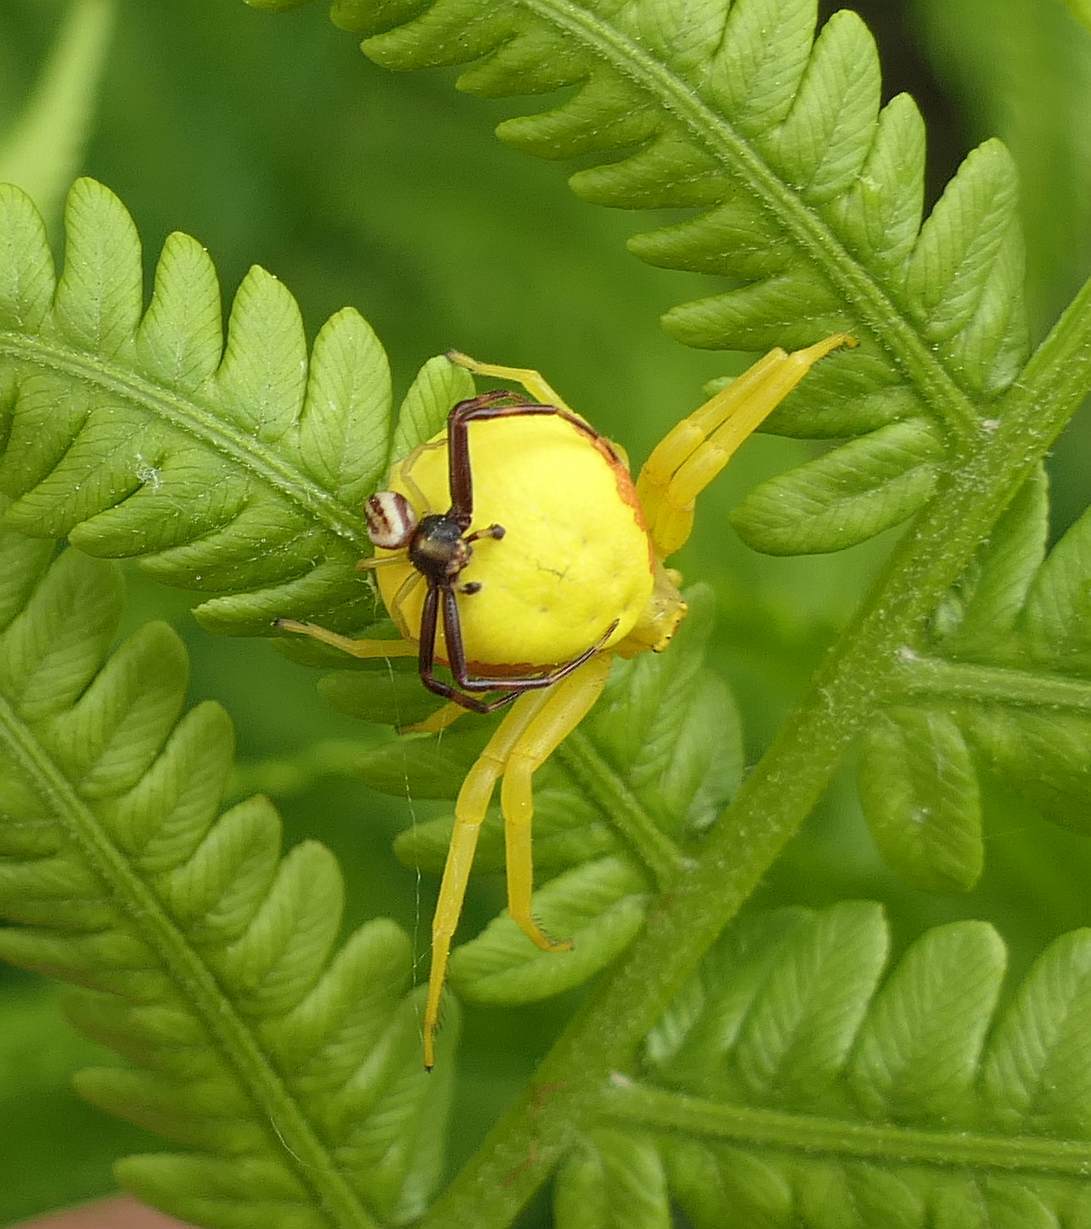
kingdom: Animalia
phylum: Arthropoda
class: Arachnida
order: Araneae
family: Thomisidae
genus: Misumena
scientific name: Misumena vatia
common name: Goldenrod crab spider
